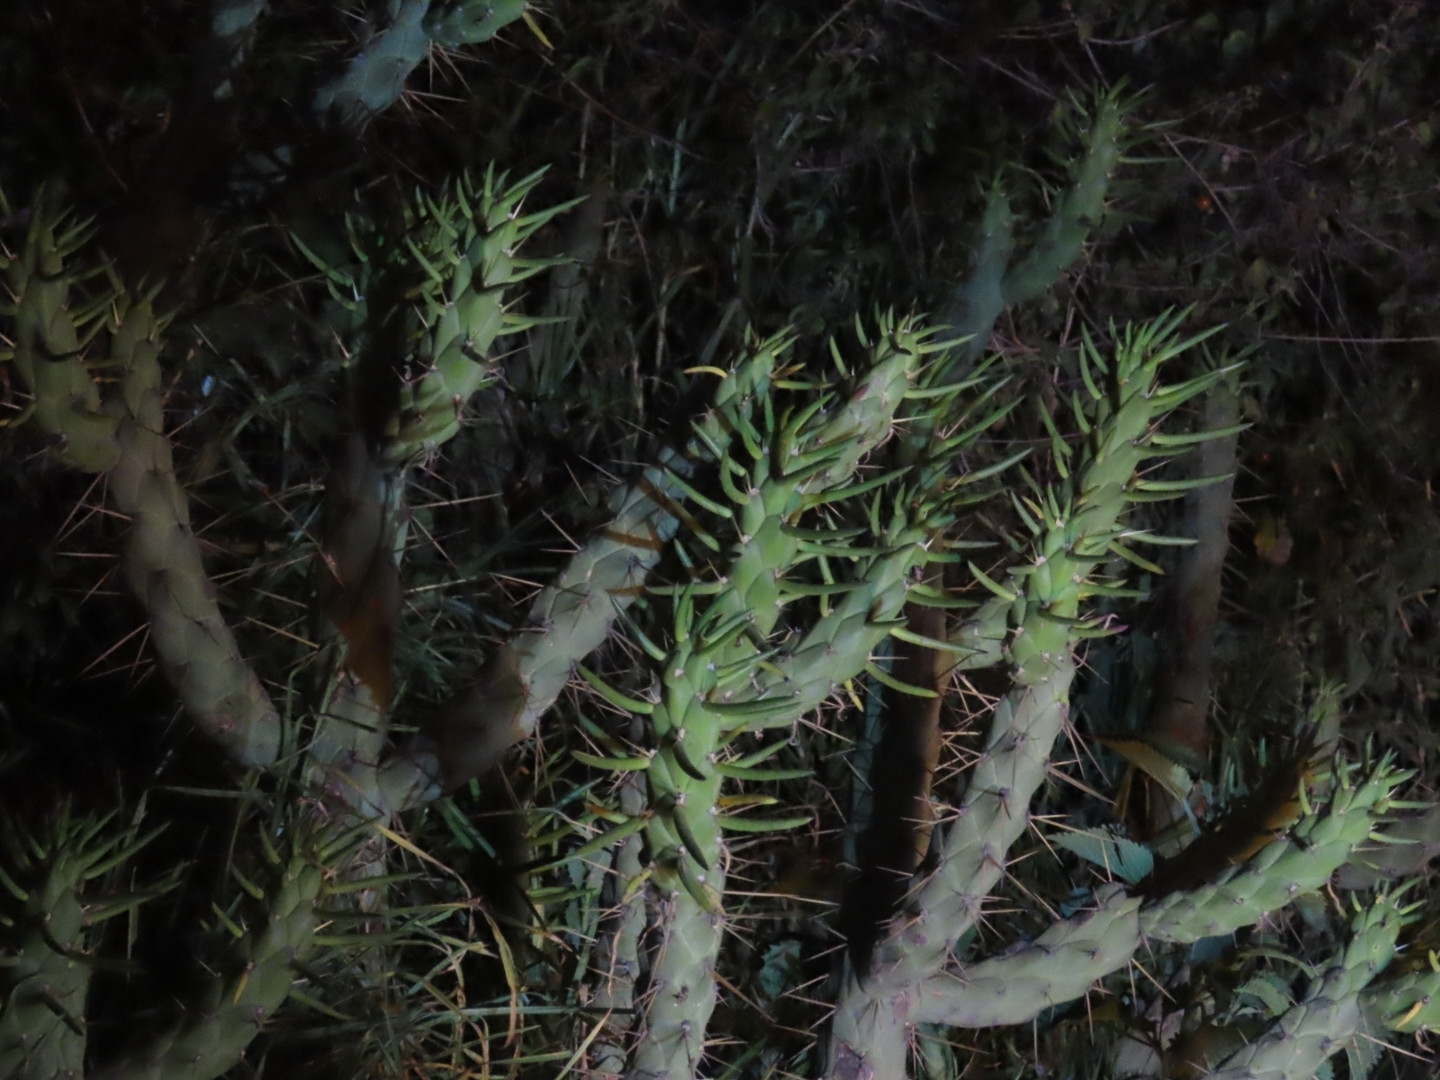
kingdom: Plantae
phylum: Tracheophyta
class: Magnoliopsida
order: Caryophyllales
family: Cactaceae
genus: Austrocylindropuntia
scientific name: Austrocylindropuntia subulata
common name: Eve's needle cactus
